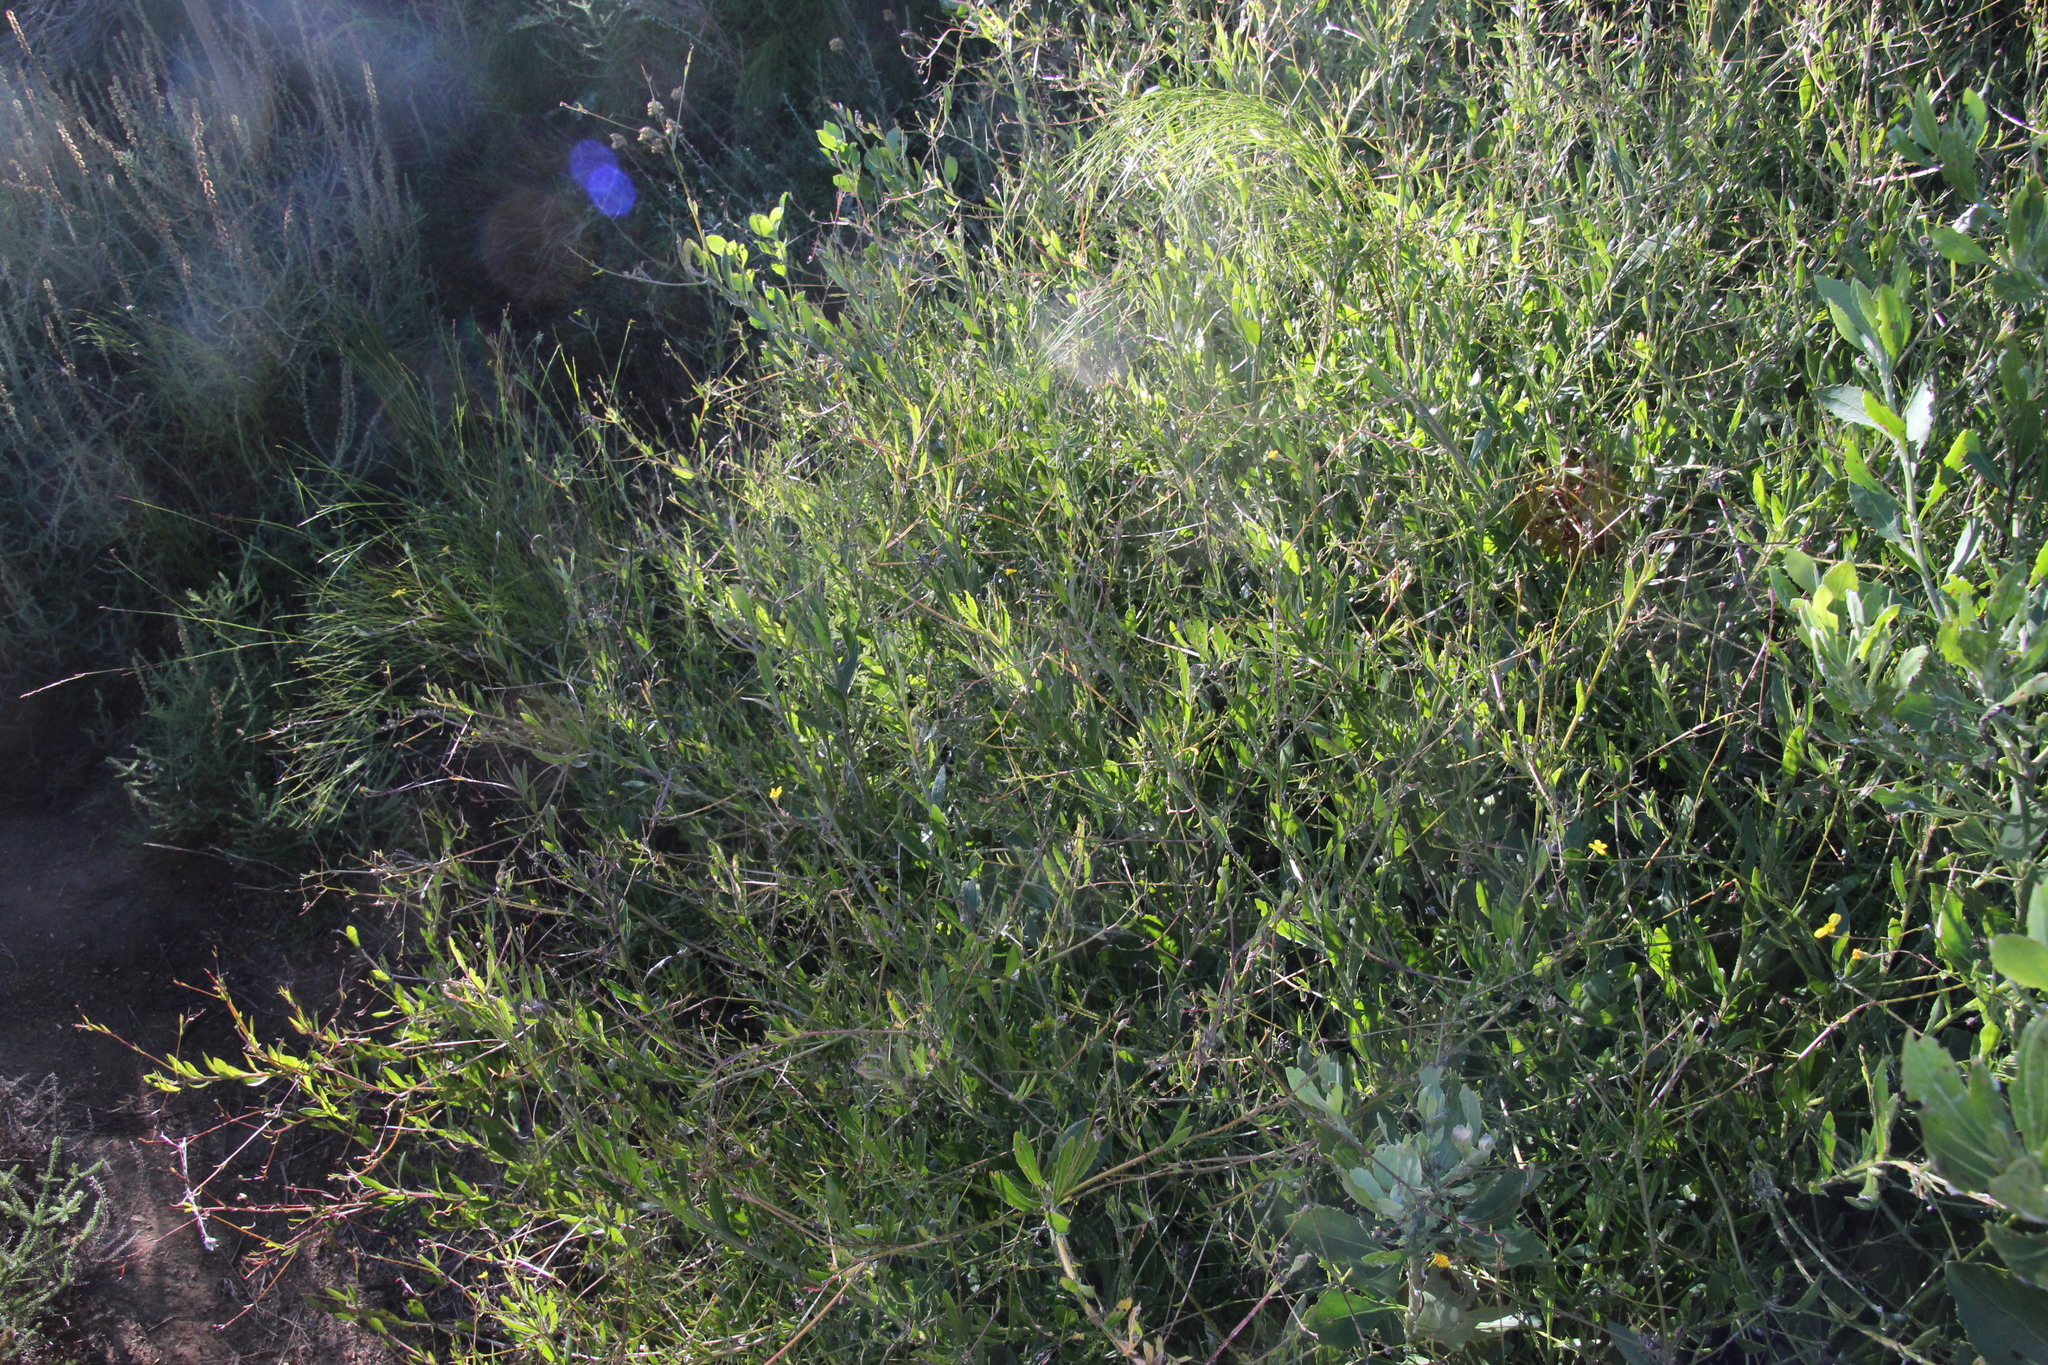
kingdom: Plantae
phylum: Tracheophyta
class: Magnoliopsida
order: Asterales
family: Asteraceae
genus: Osteospermum
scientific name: Osteospermum ciliatum
